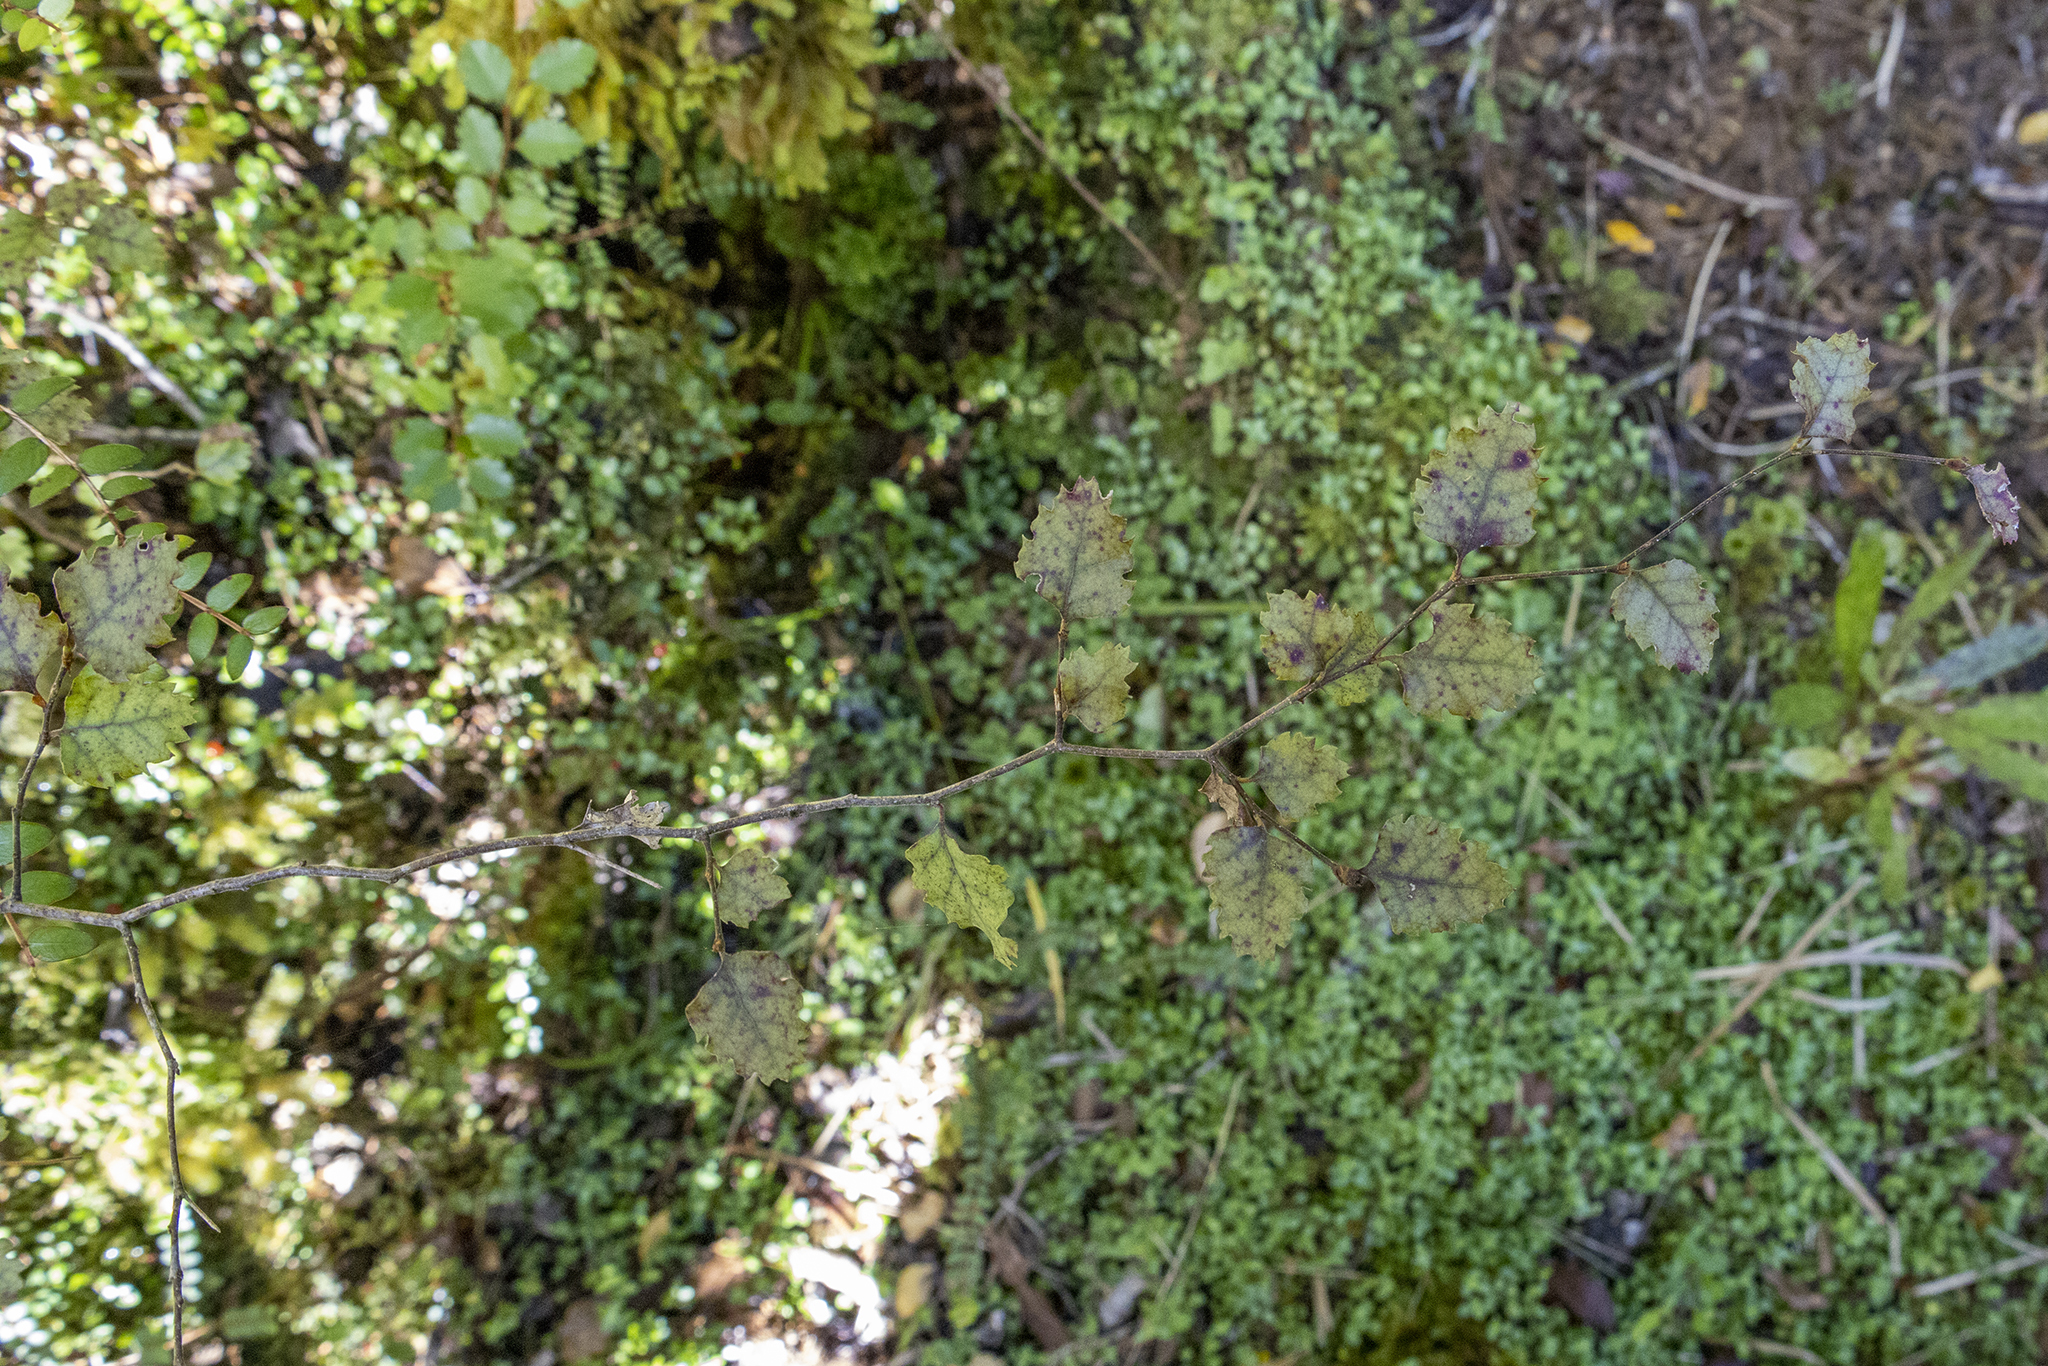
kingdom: Plantae
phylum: Tracheophyta
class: Magnoliopsida
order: Fagales
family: Nothofagaceae
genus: Nothofagus
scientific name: Nothofagus fusca
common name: Red beech
